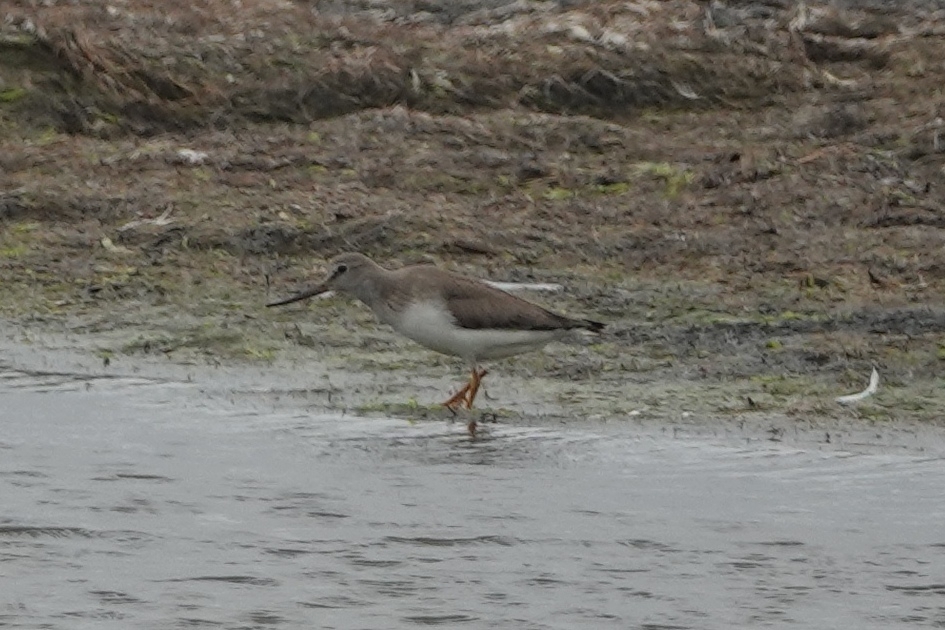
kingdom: Animalia
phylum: Chordata
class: Aves
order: Charadriiformes
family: Scolopacidae
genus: Xenus
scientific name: Xenus cinereus
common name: Terek sandpiper
